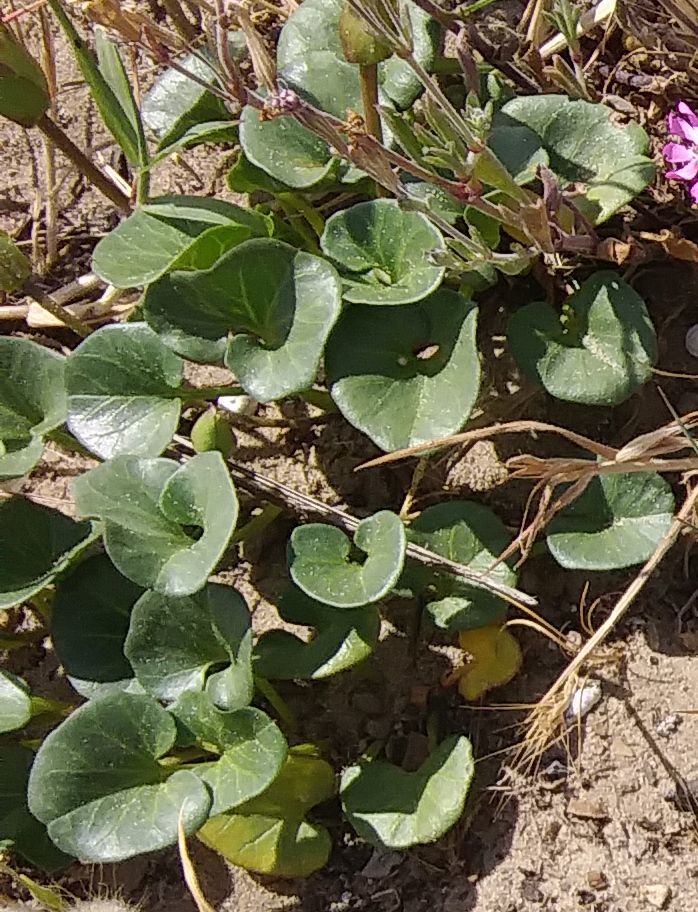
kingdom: Plantae
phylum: Tracheophyta
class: Magnoliopsida
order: Solanales
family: Convolvulaceae
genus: Calystegia
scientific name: Calystegia soldanella
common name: Sea bindweed
